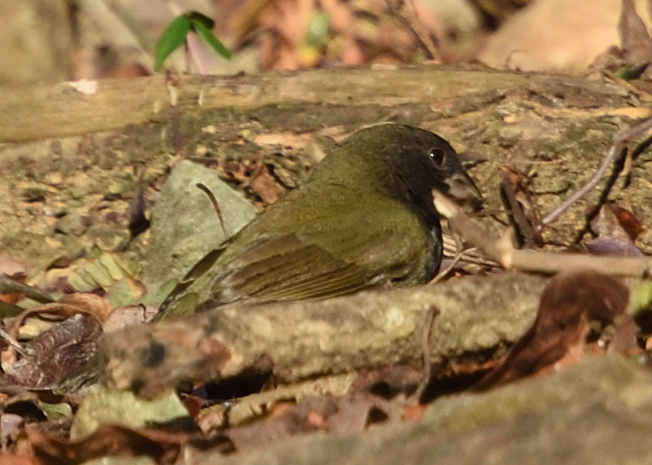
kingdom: Animalia
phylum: Chordata
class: Aves
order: Passeriformes
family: Thraupidae
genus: Melanospiza
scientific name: Melanospiza bicolor
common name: Black-faced grassquit
